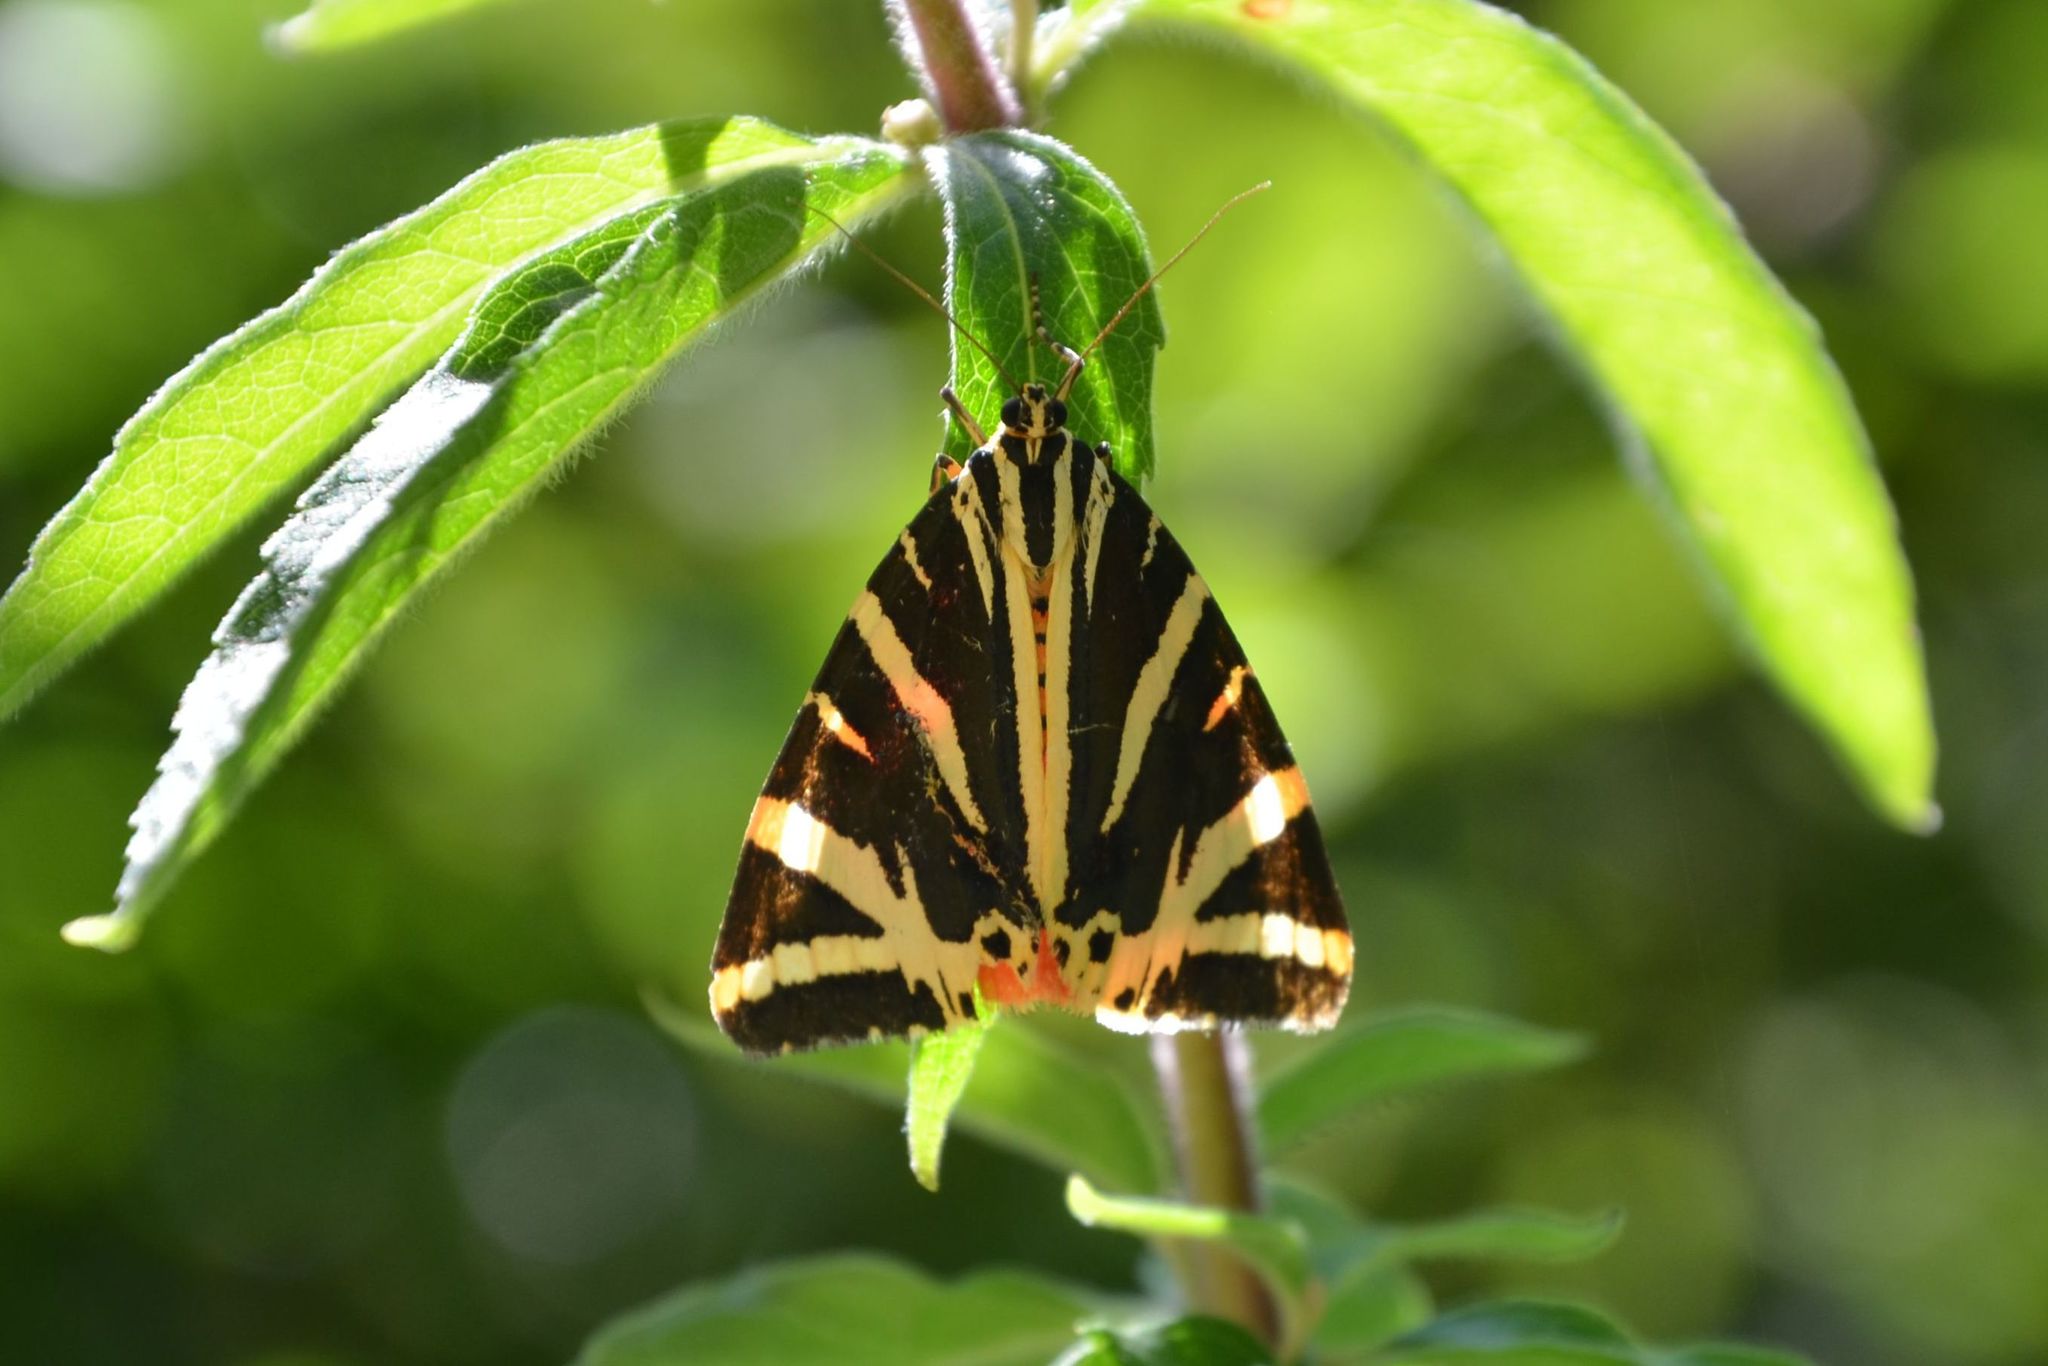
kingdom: Animalia
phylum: Arthropoda
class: Insecta
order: Lepidoptera
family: Erebidae
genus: Euplagia
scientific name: Euplagia quadripunctaria
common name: Jersey tiger
